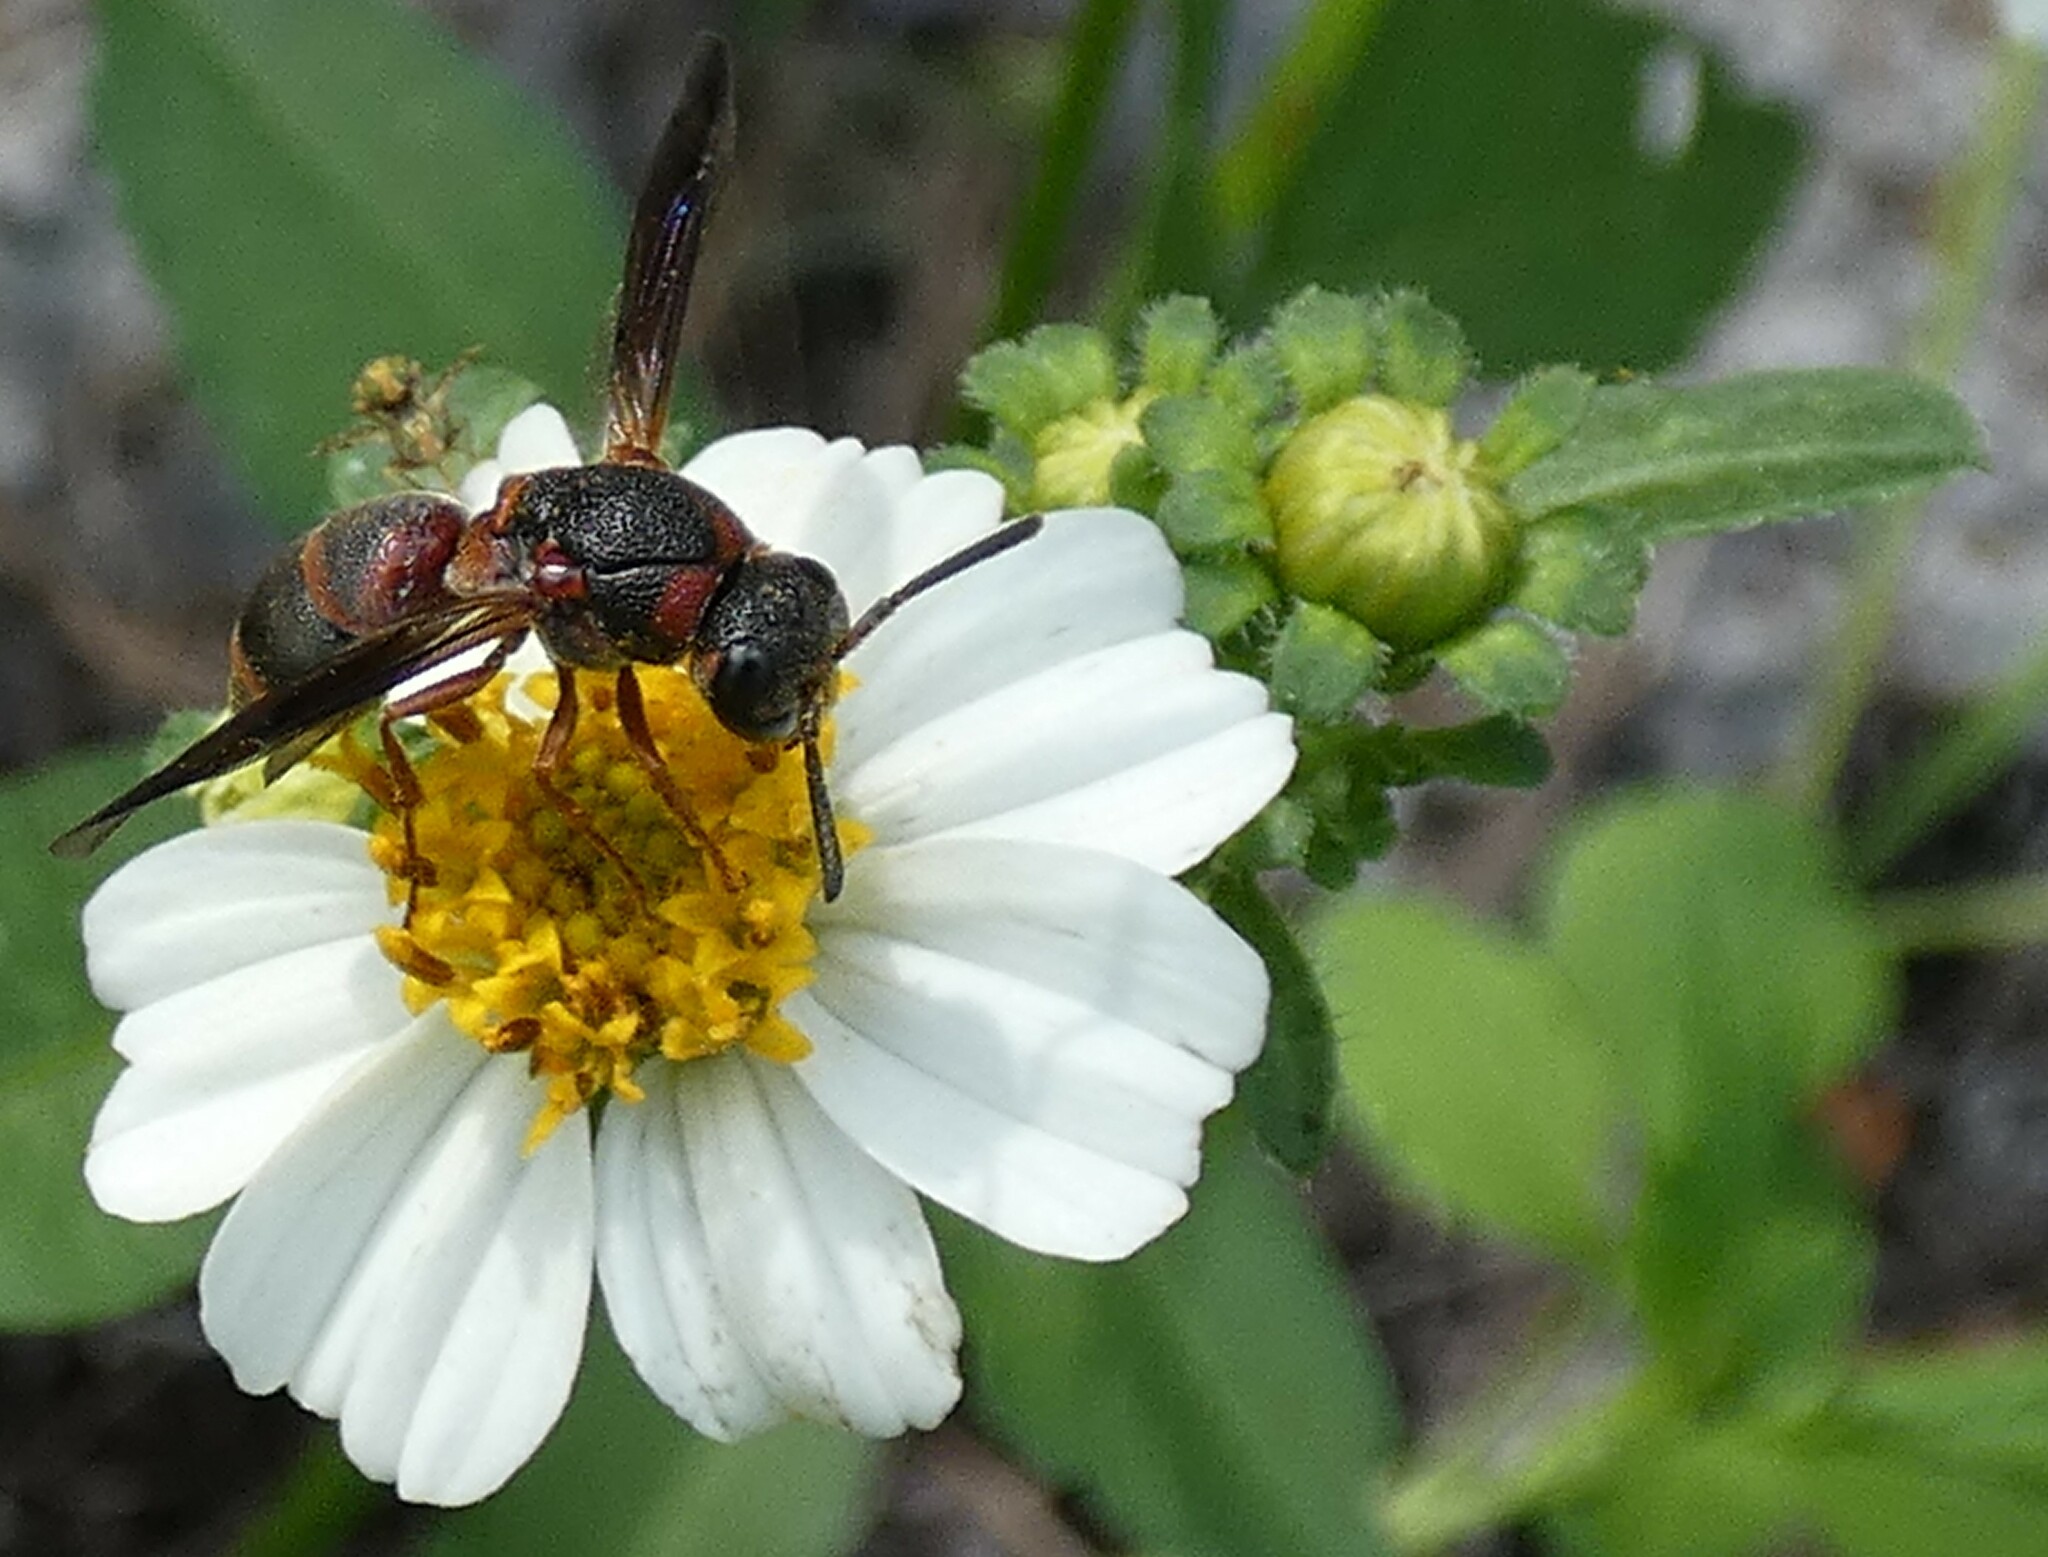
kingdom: Animalia
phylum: Arthropoda
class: Insecta
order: Hymenoptera
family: Eumenidae
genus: Parancistrocerus
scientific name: Parancistrocerus fulvipes
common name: Potter wasp
